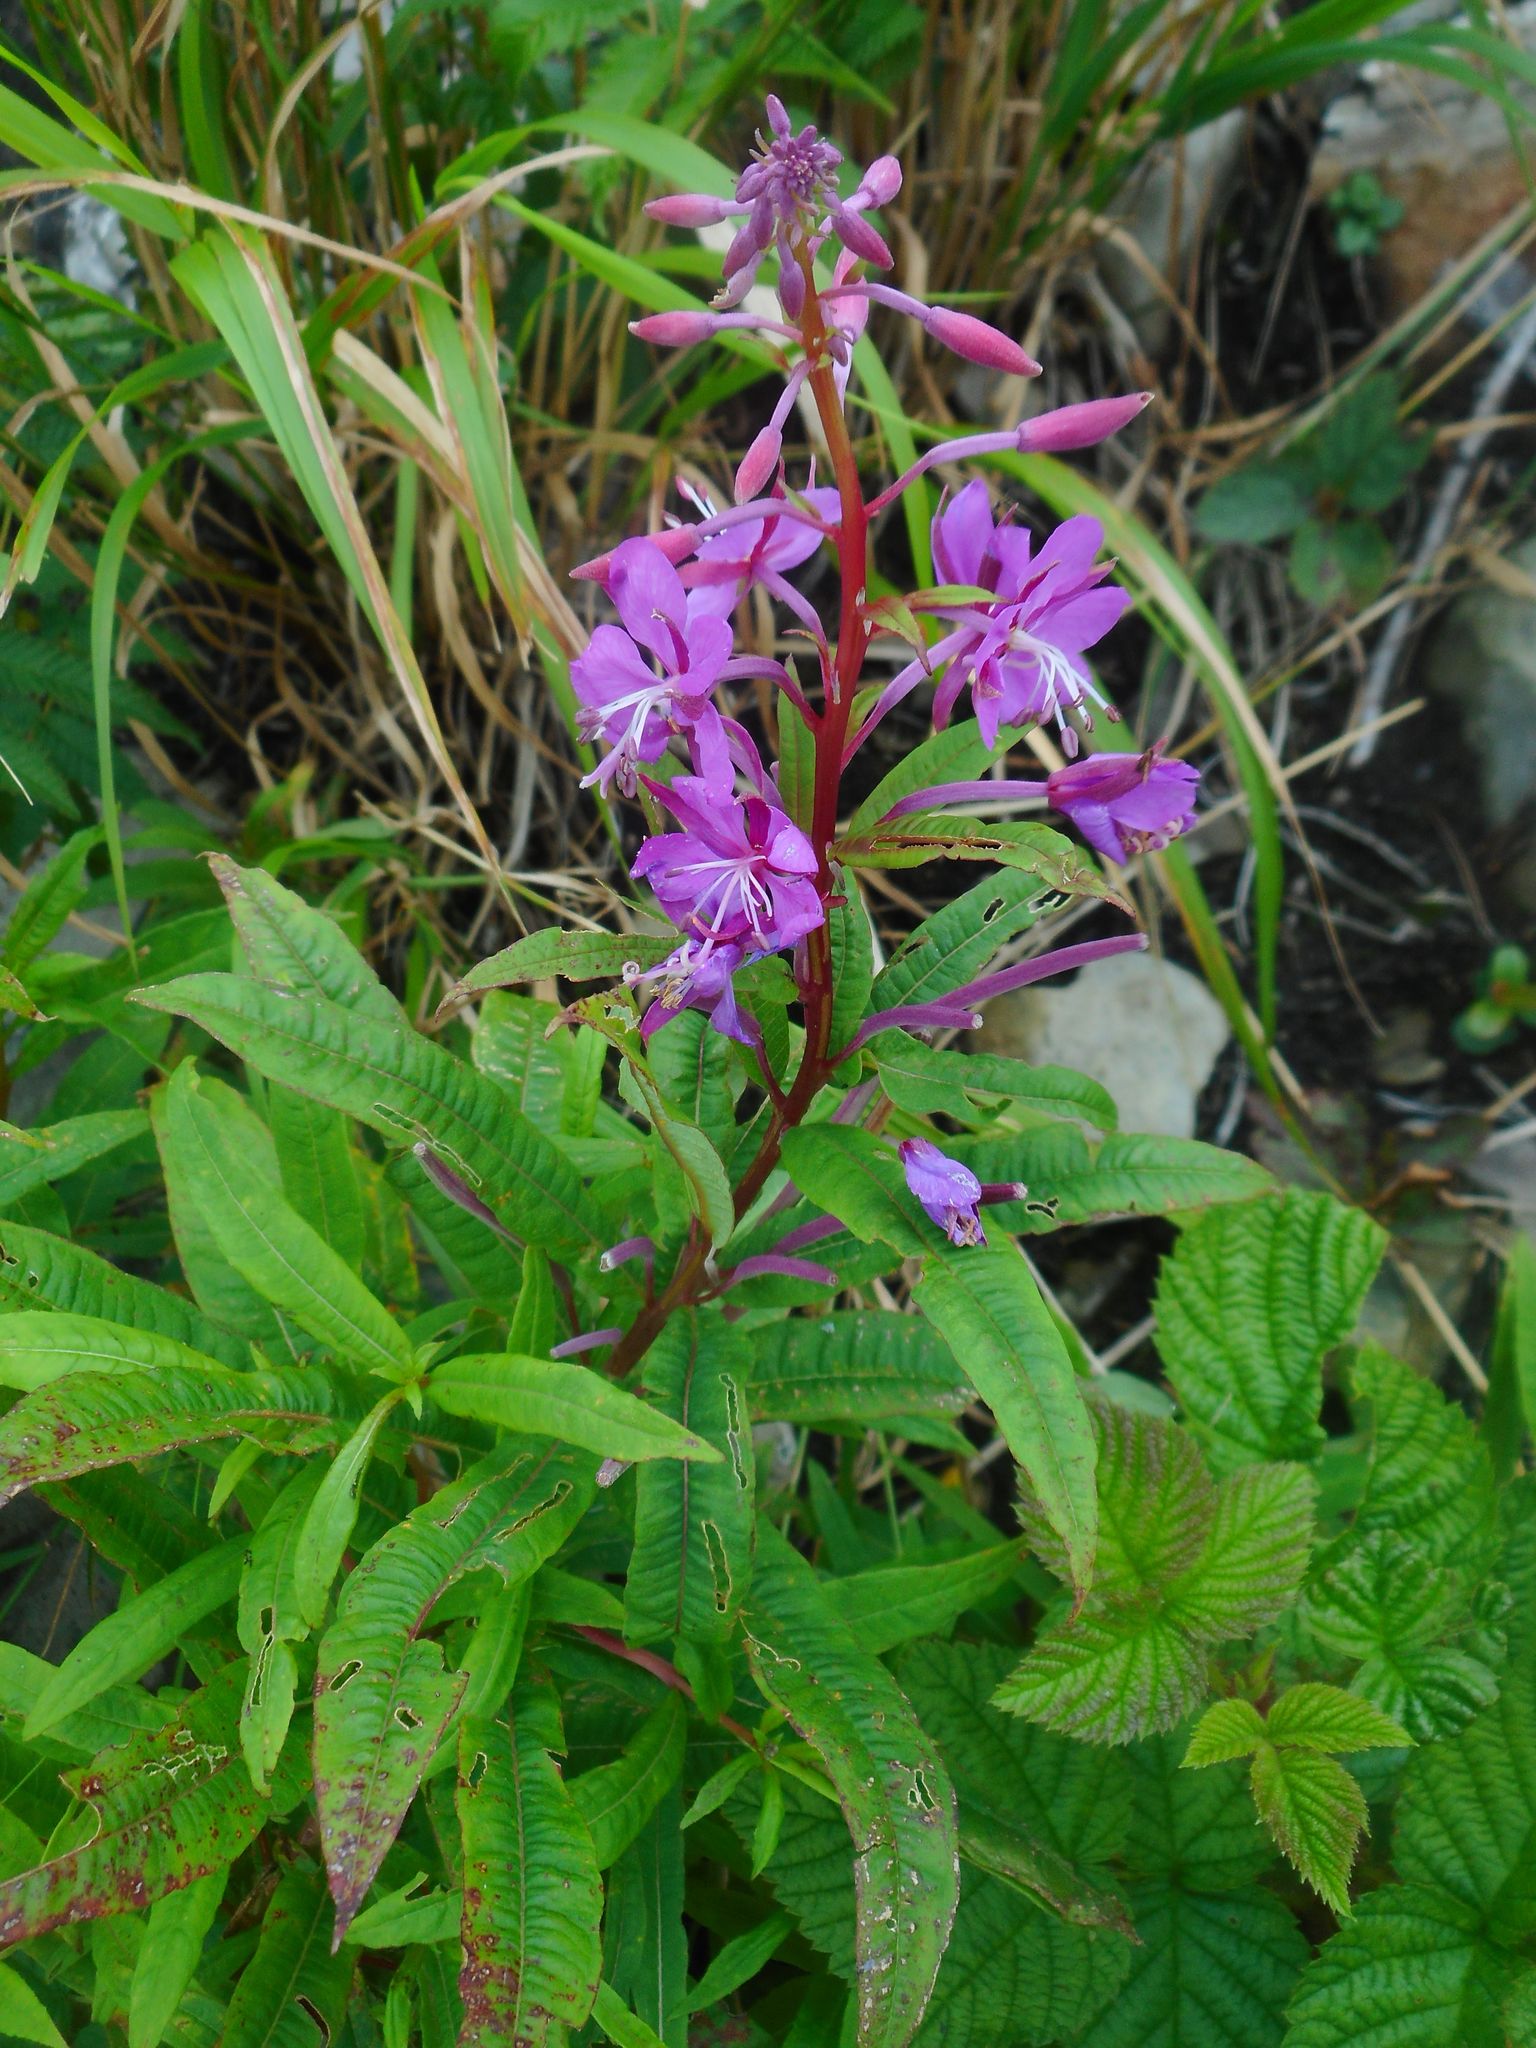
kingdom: Plantae
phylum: Tracheophyta
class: Magnoliopsida
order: Myrtales
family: Onagraceae
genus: Chamaenerion
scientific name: Chamaenerion angustifolium
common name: Fireweed
